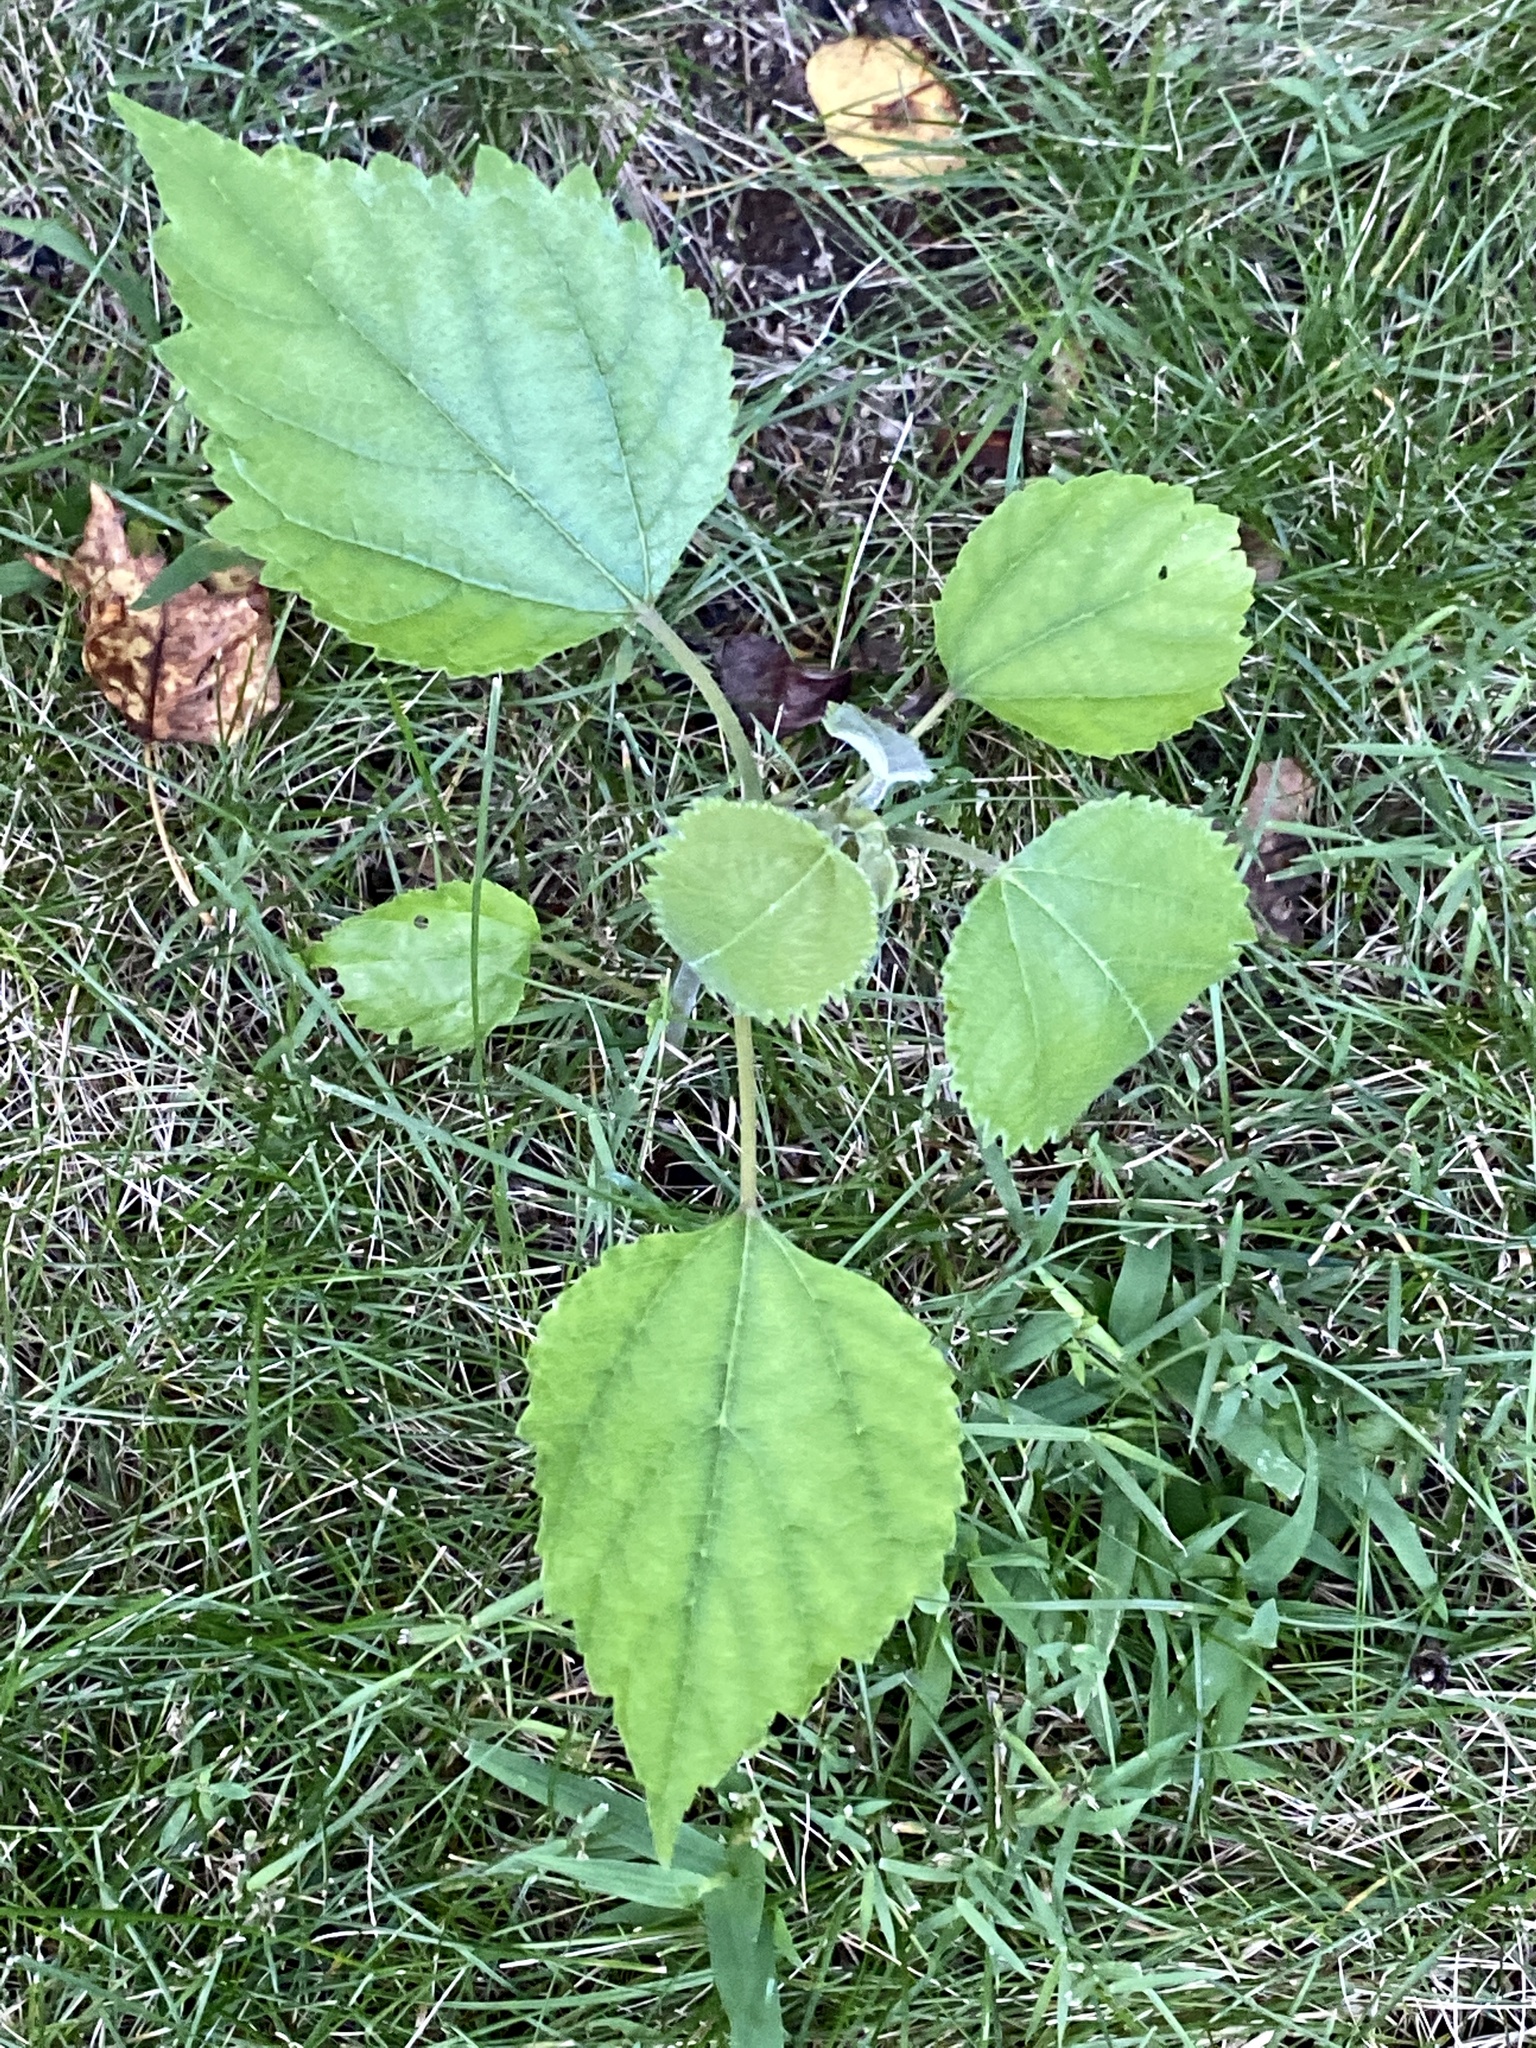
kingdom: Plantae
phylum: Tracheophyta
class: Magnoliopsida
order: Rosales
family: Moraceae
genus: Broussonetia
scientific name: Broussonetia papyrifera
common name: Paper mulberry
